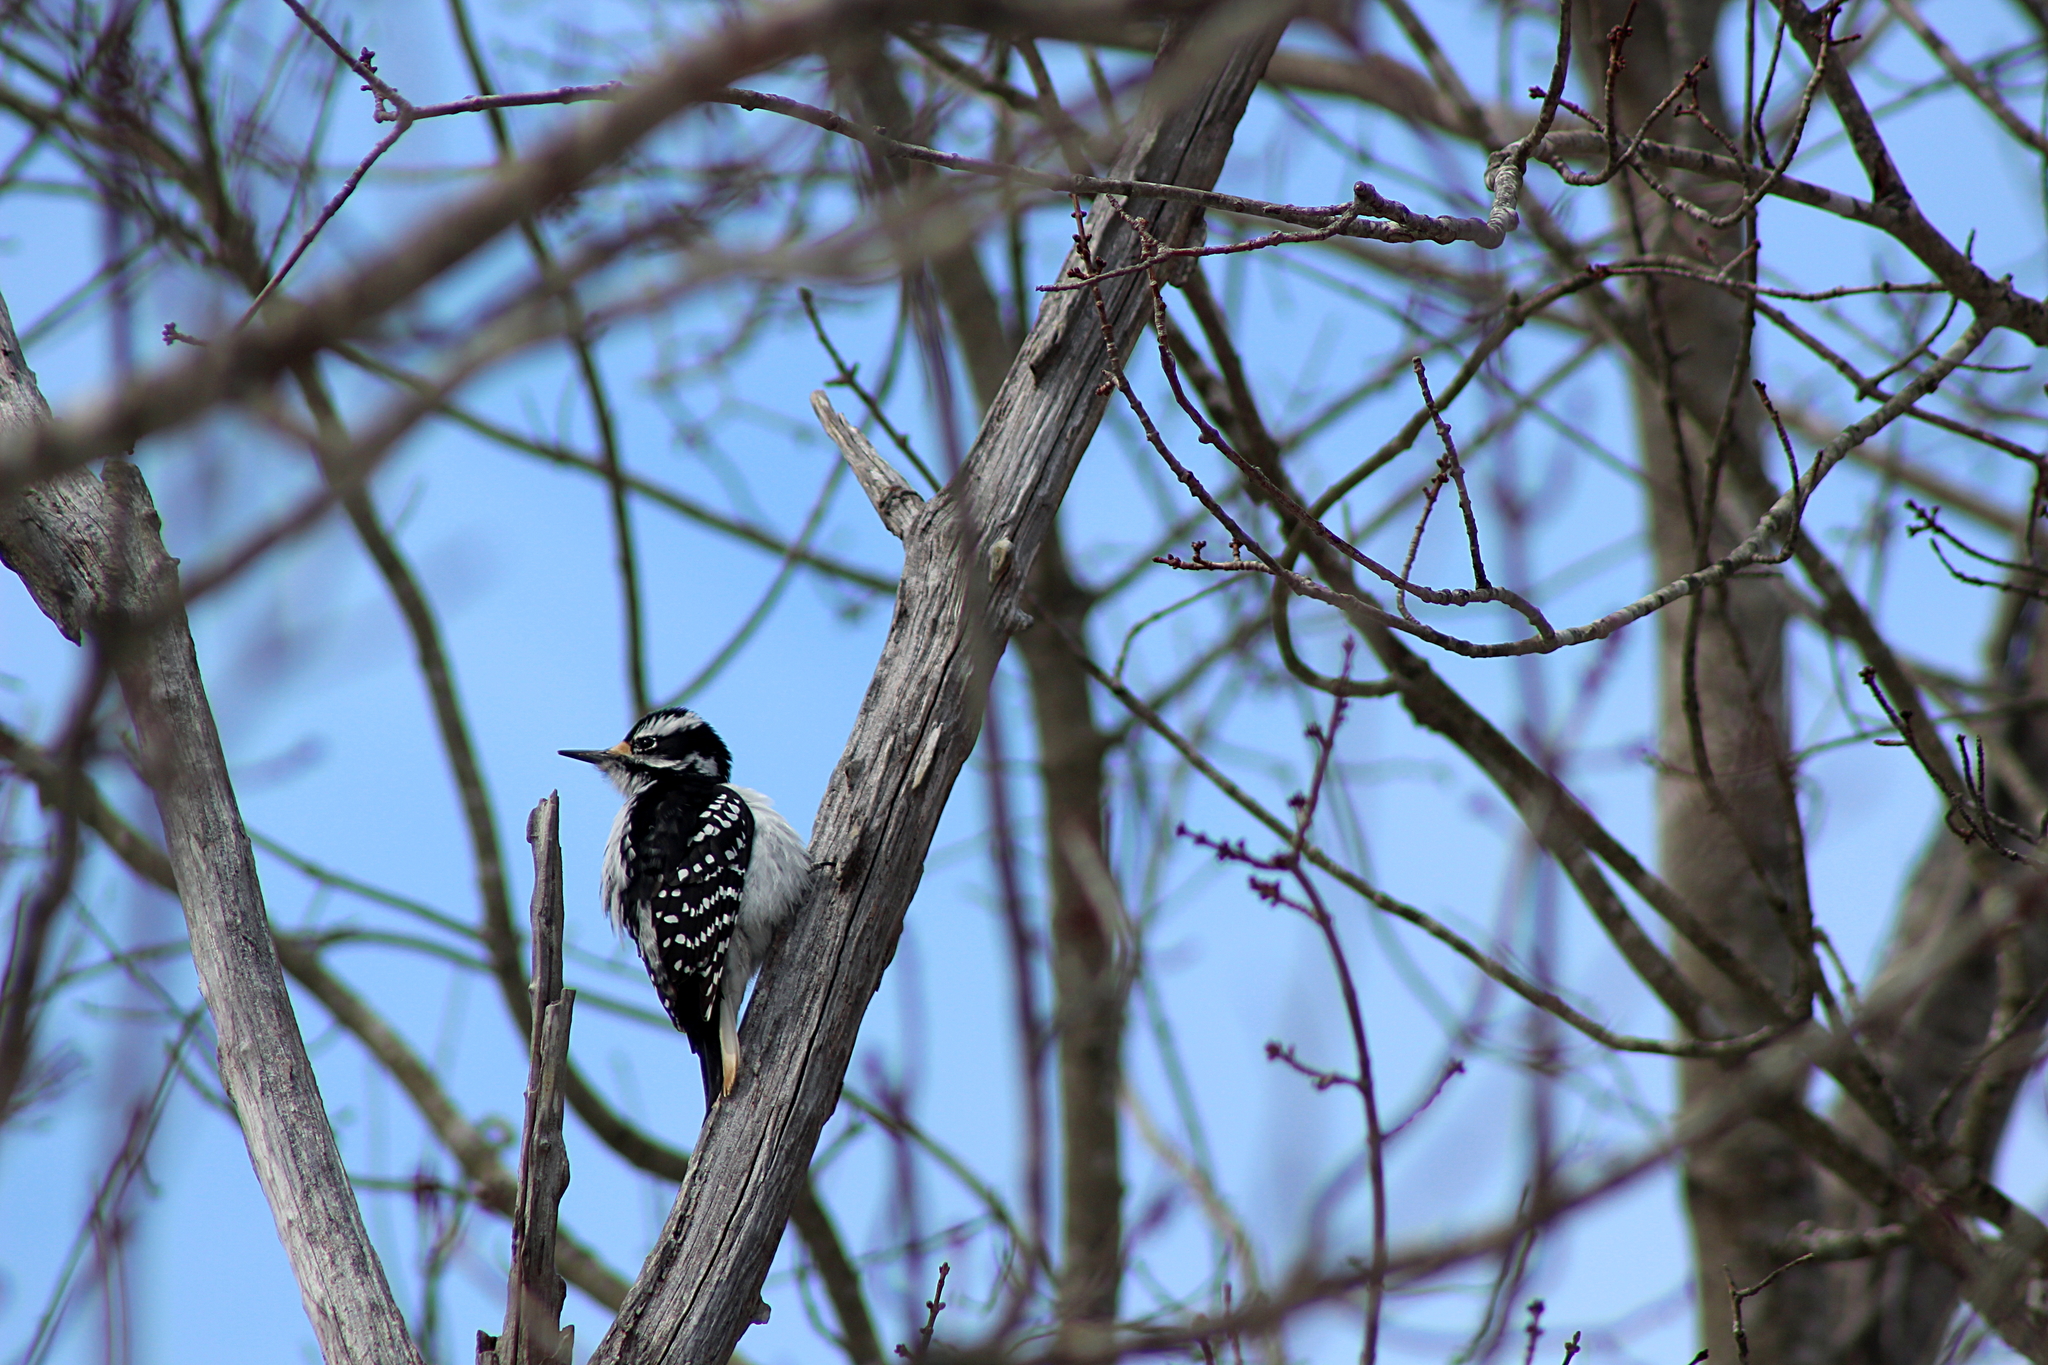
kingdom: Animalia
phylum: Chordata
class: Aves
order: Piciformes
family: Picidae
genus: Leuconotopicus
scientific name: Leuconotopicus villosus
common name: Hairy woodpecker
